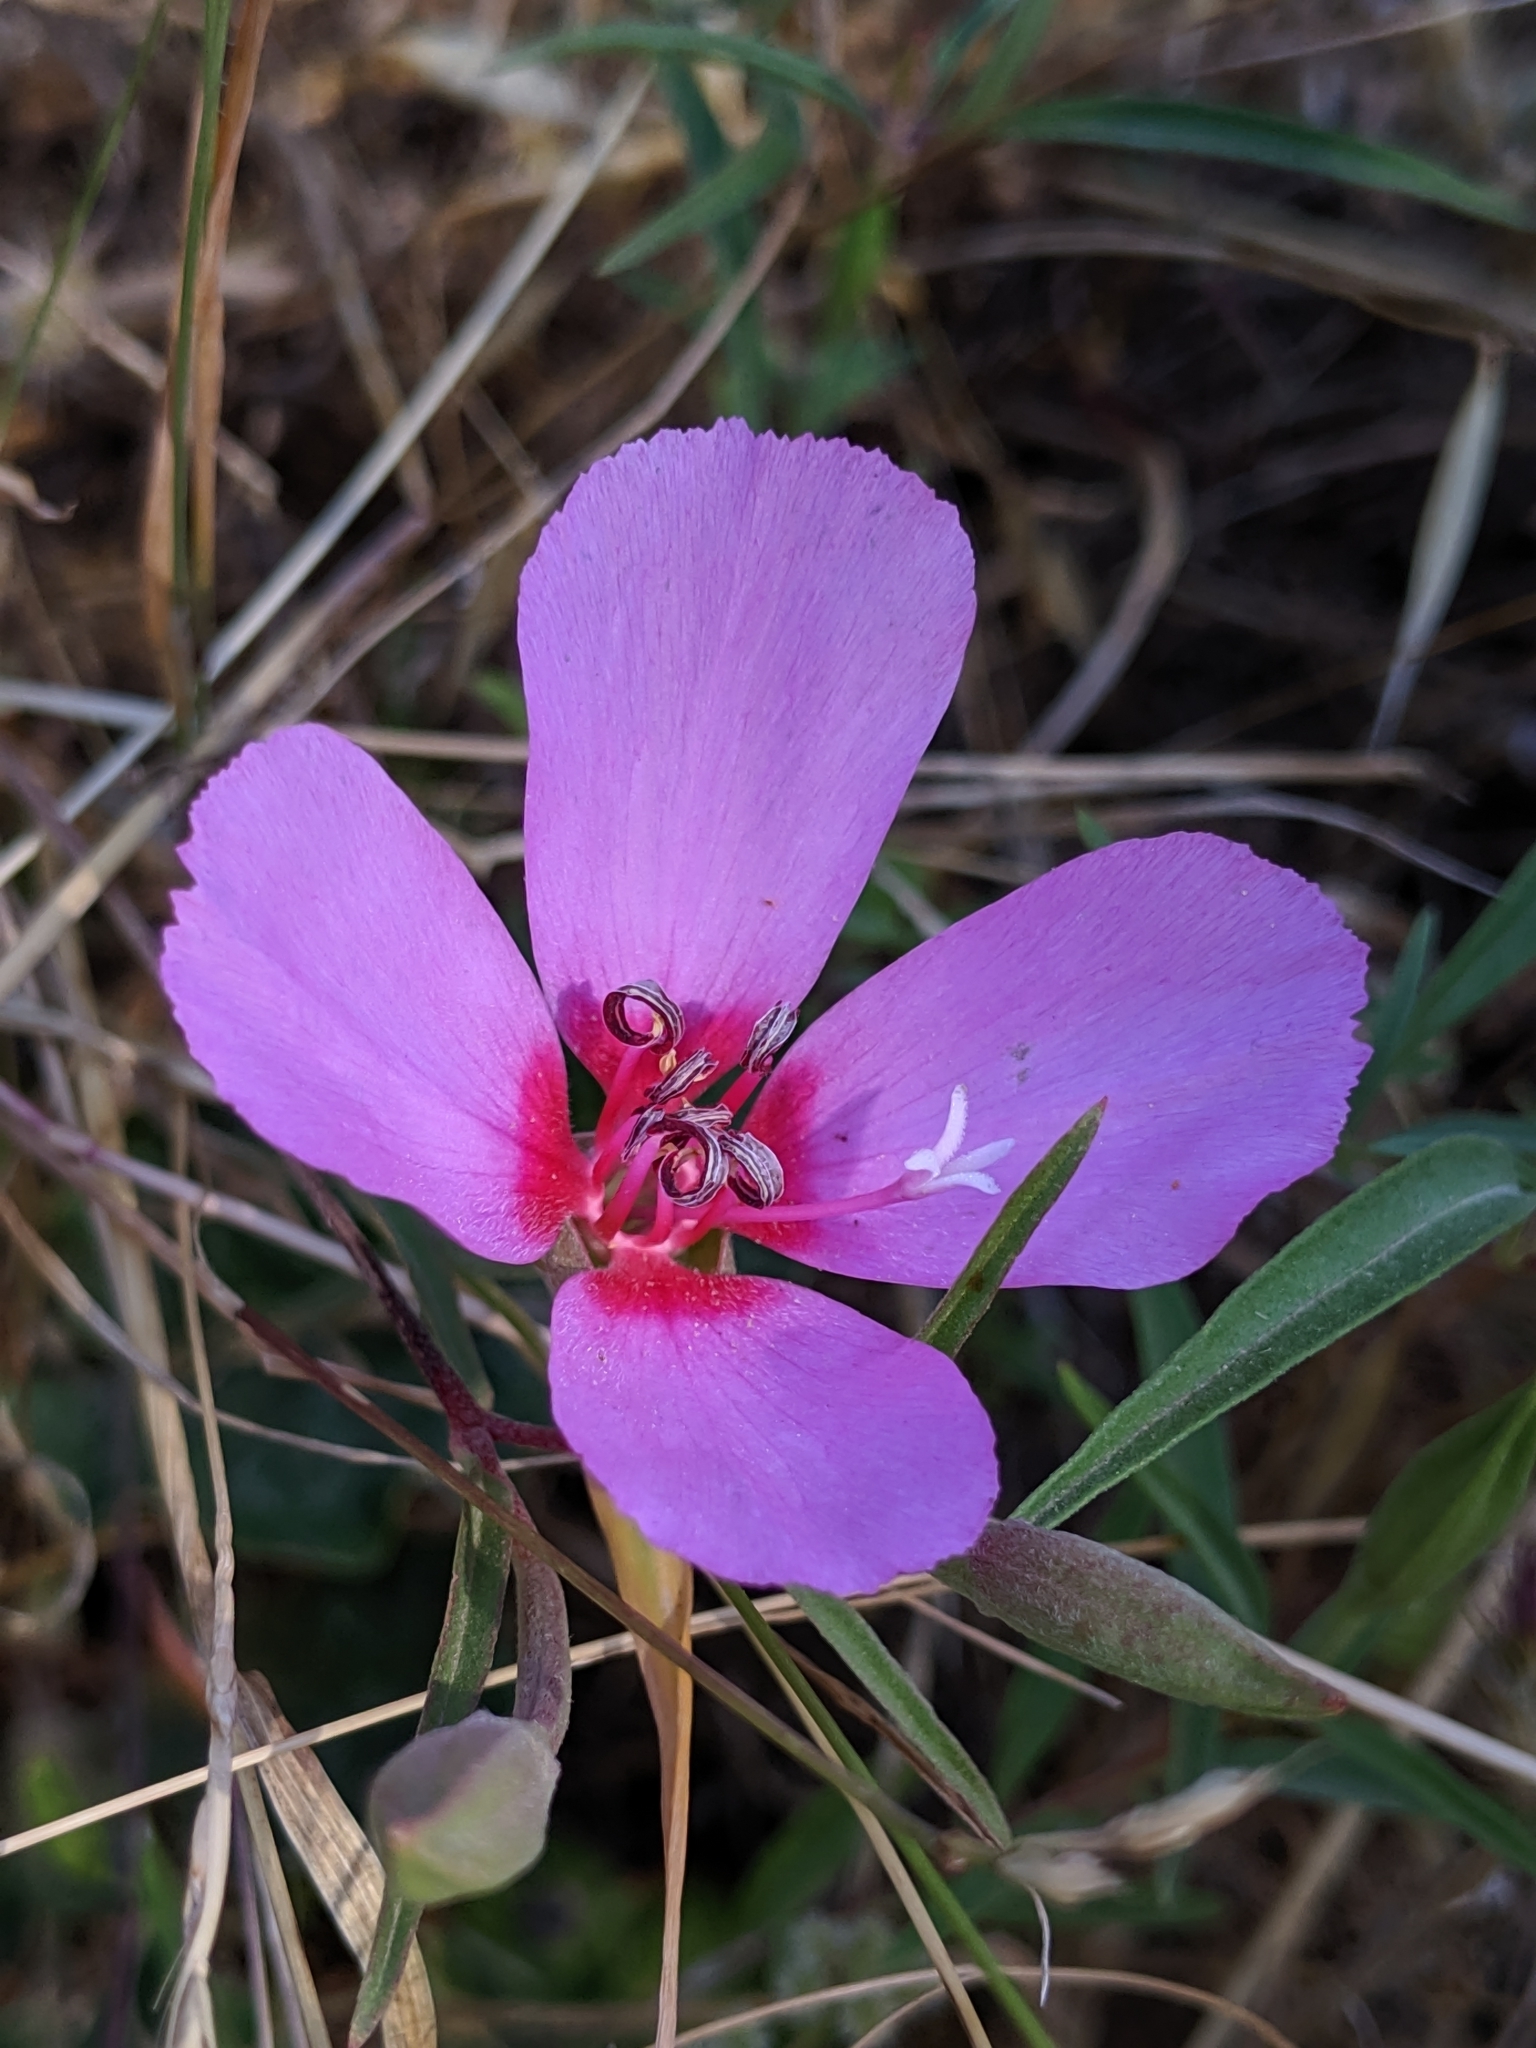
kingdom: Plantae
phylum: Tracheophyta
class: Magnoliopsida
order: Myrtales
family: Onagraceae
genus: Clarkia
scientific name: Clarkia rubicunda
